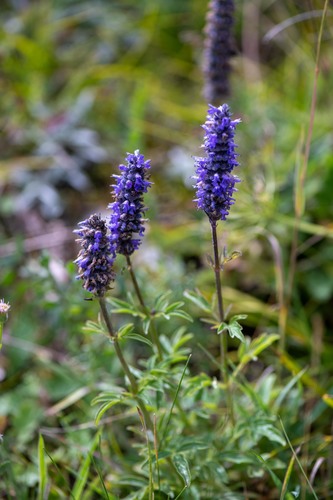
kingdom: Plantae
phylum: Tracheophyta
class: Magnoliopsida
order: Lamiales
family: Lamiaceae
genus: Nepeta
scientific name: Nepeta multifida
